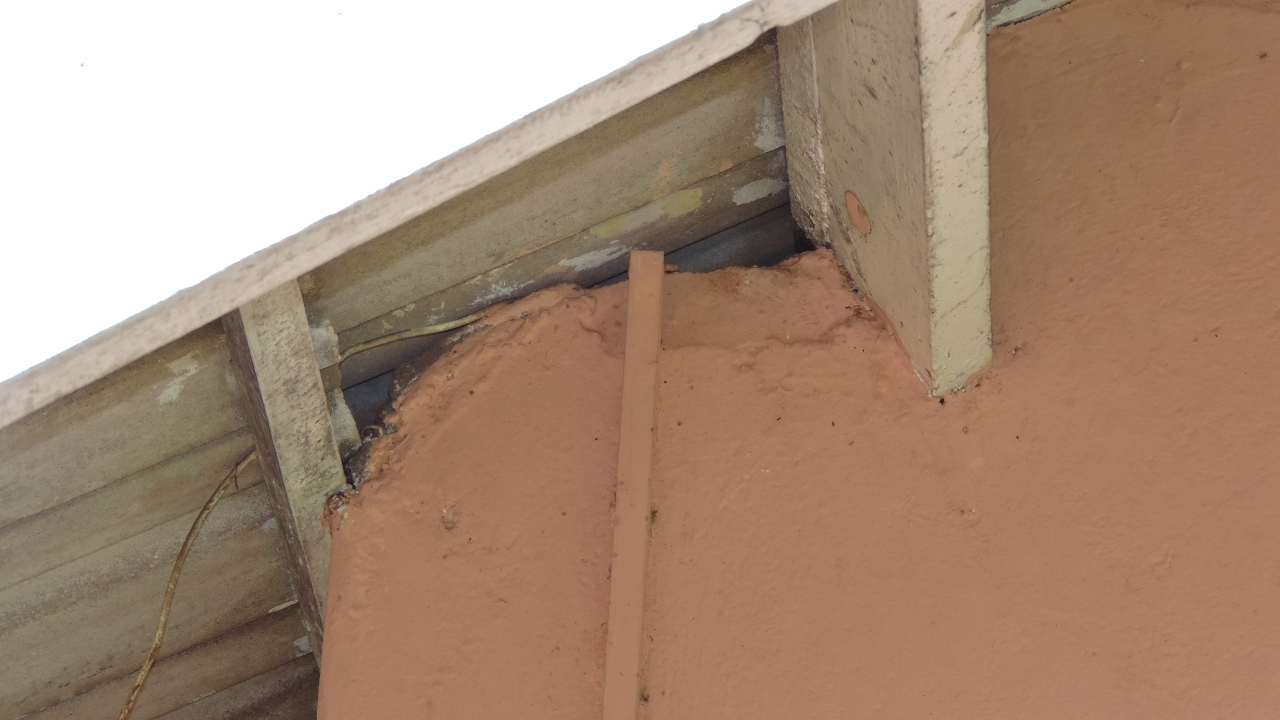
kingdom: Animalia
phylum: Chordata
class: Aves
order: Passeriformes
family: Passeridae
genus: Passer
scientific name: Passer diffusus
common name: Southern grey-headed sparrow
